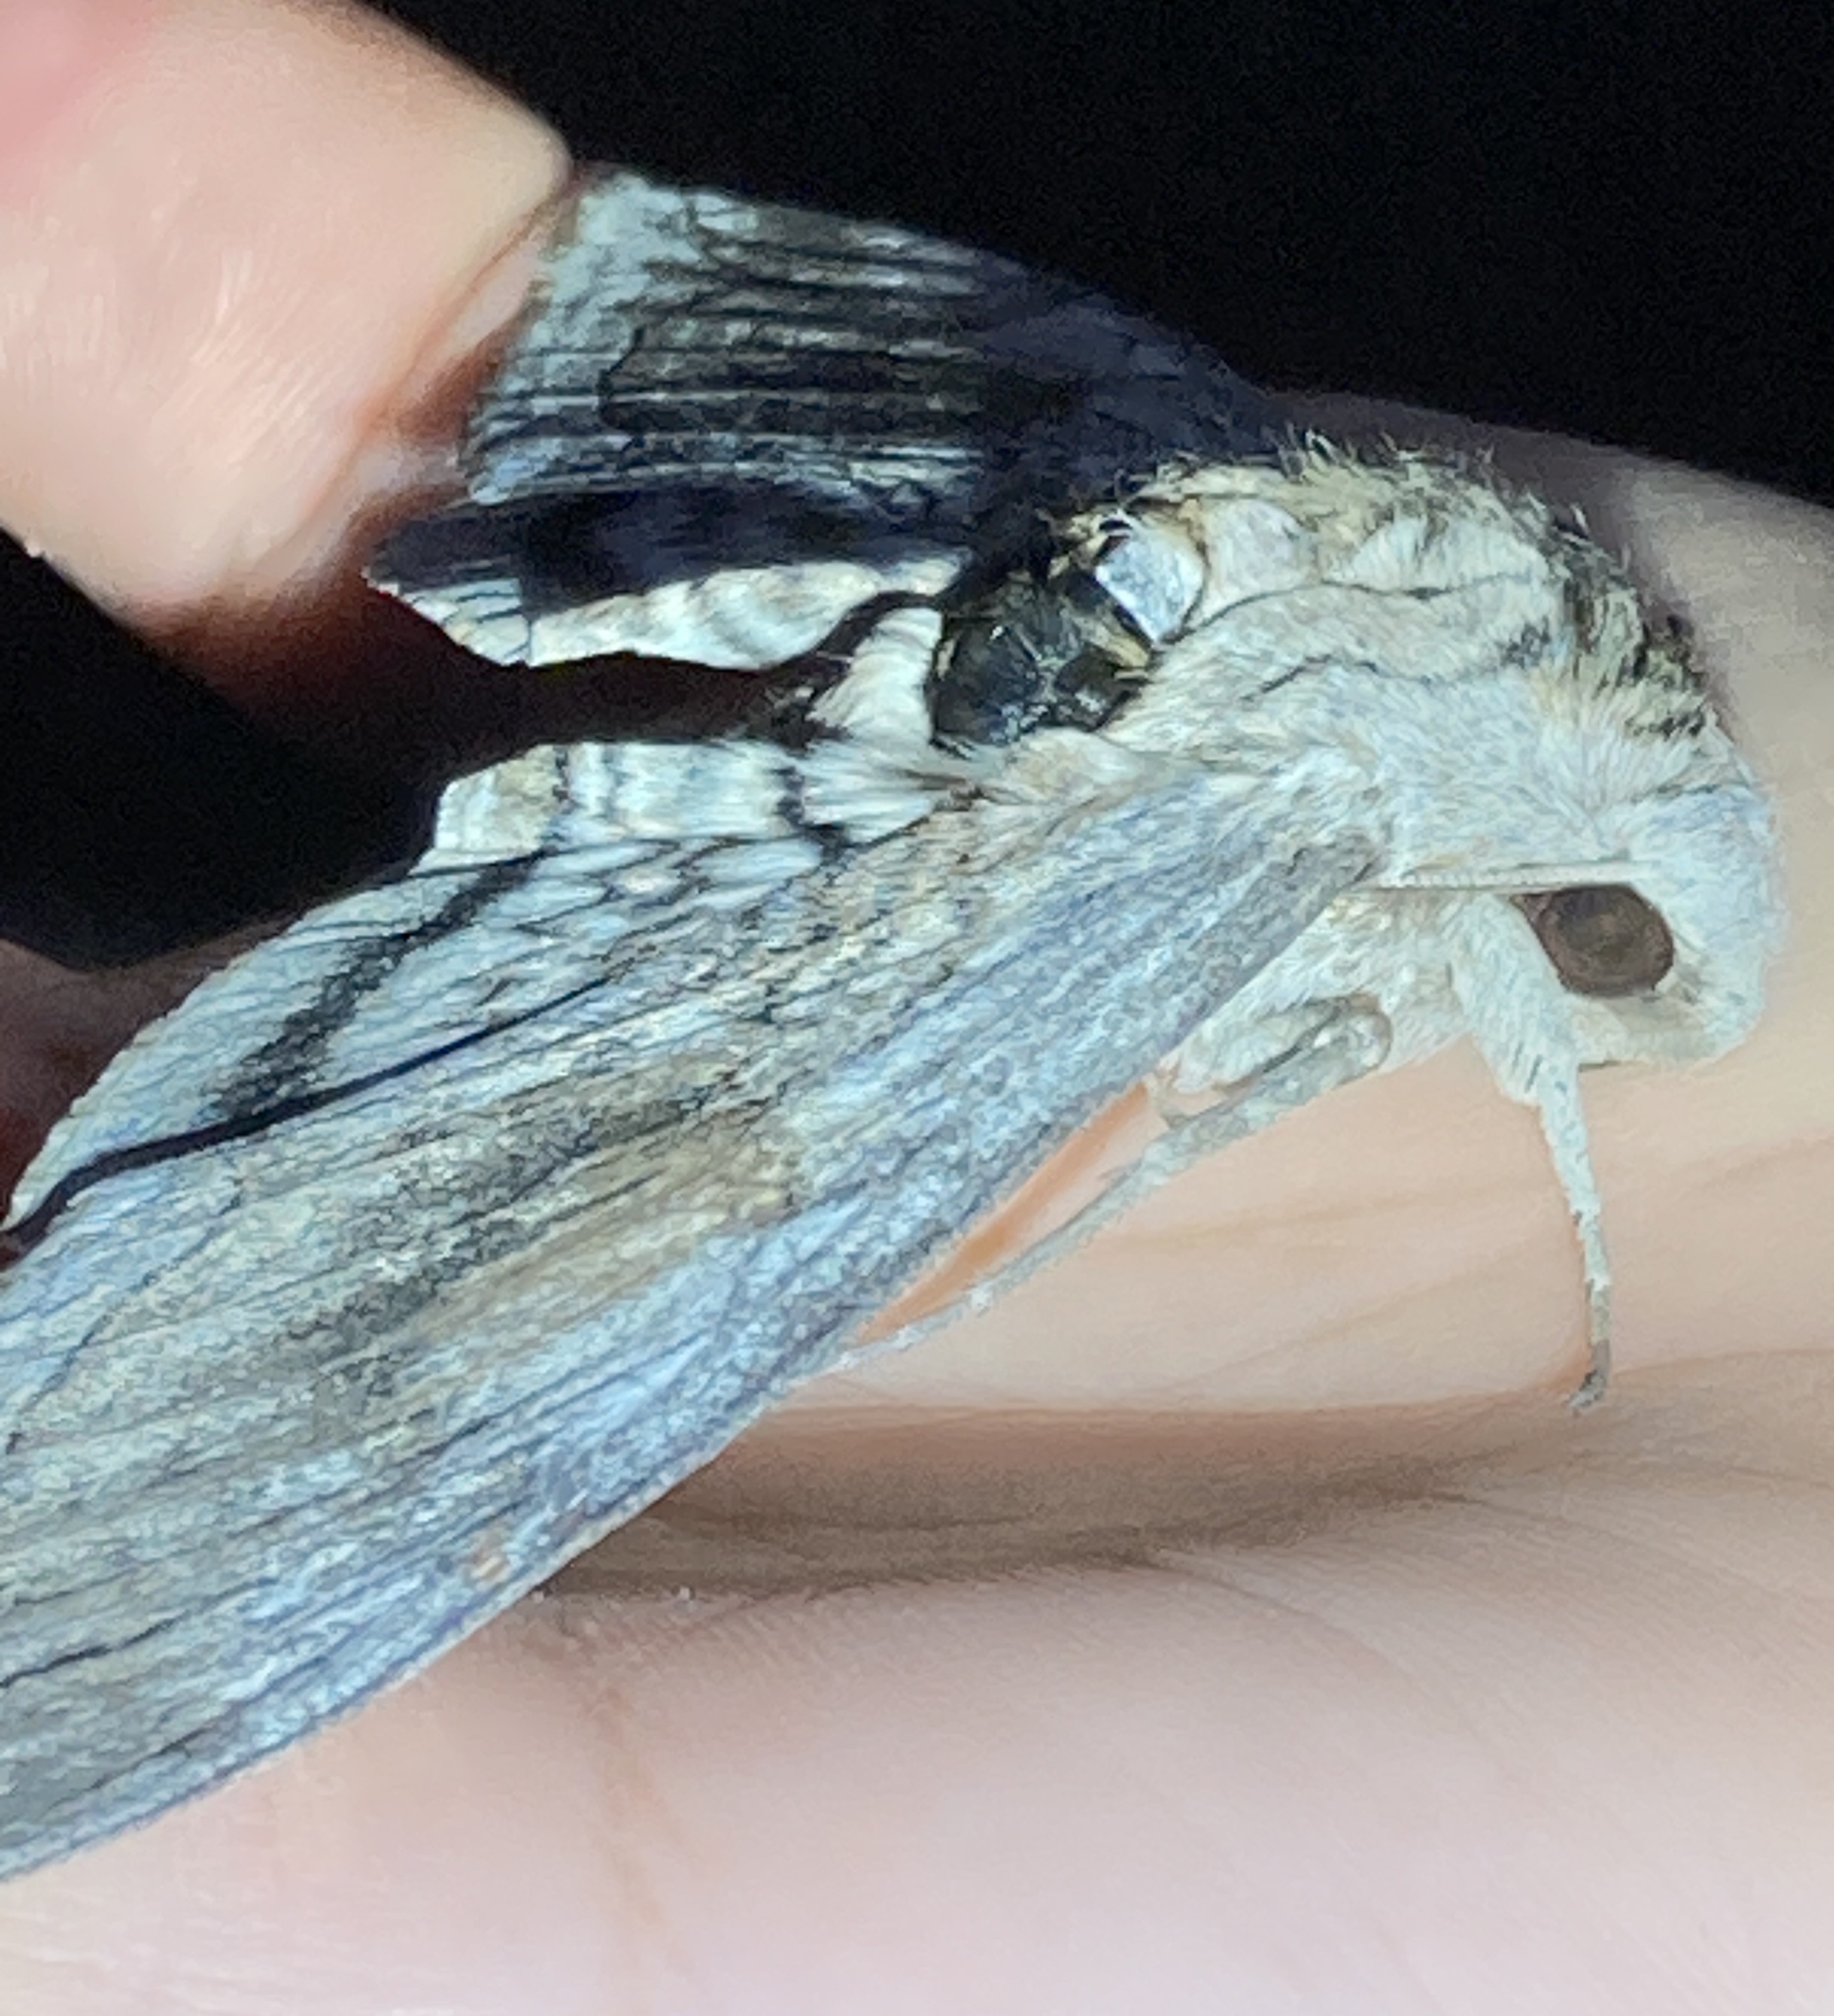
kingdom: Animalia
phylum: Arthropoda
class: Insecta
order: Lepidoptera
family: Sphingidae
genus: Manduca
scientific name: Manduca quinquemaculatus
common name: Five-spotted hawk-moth
